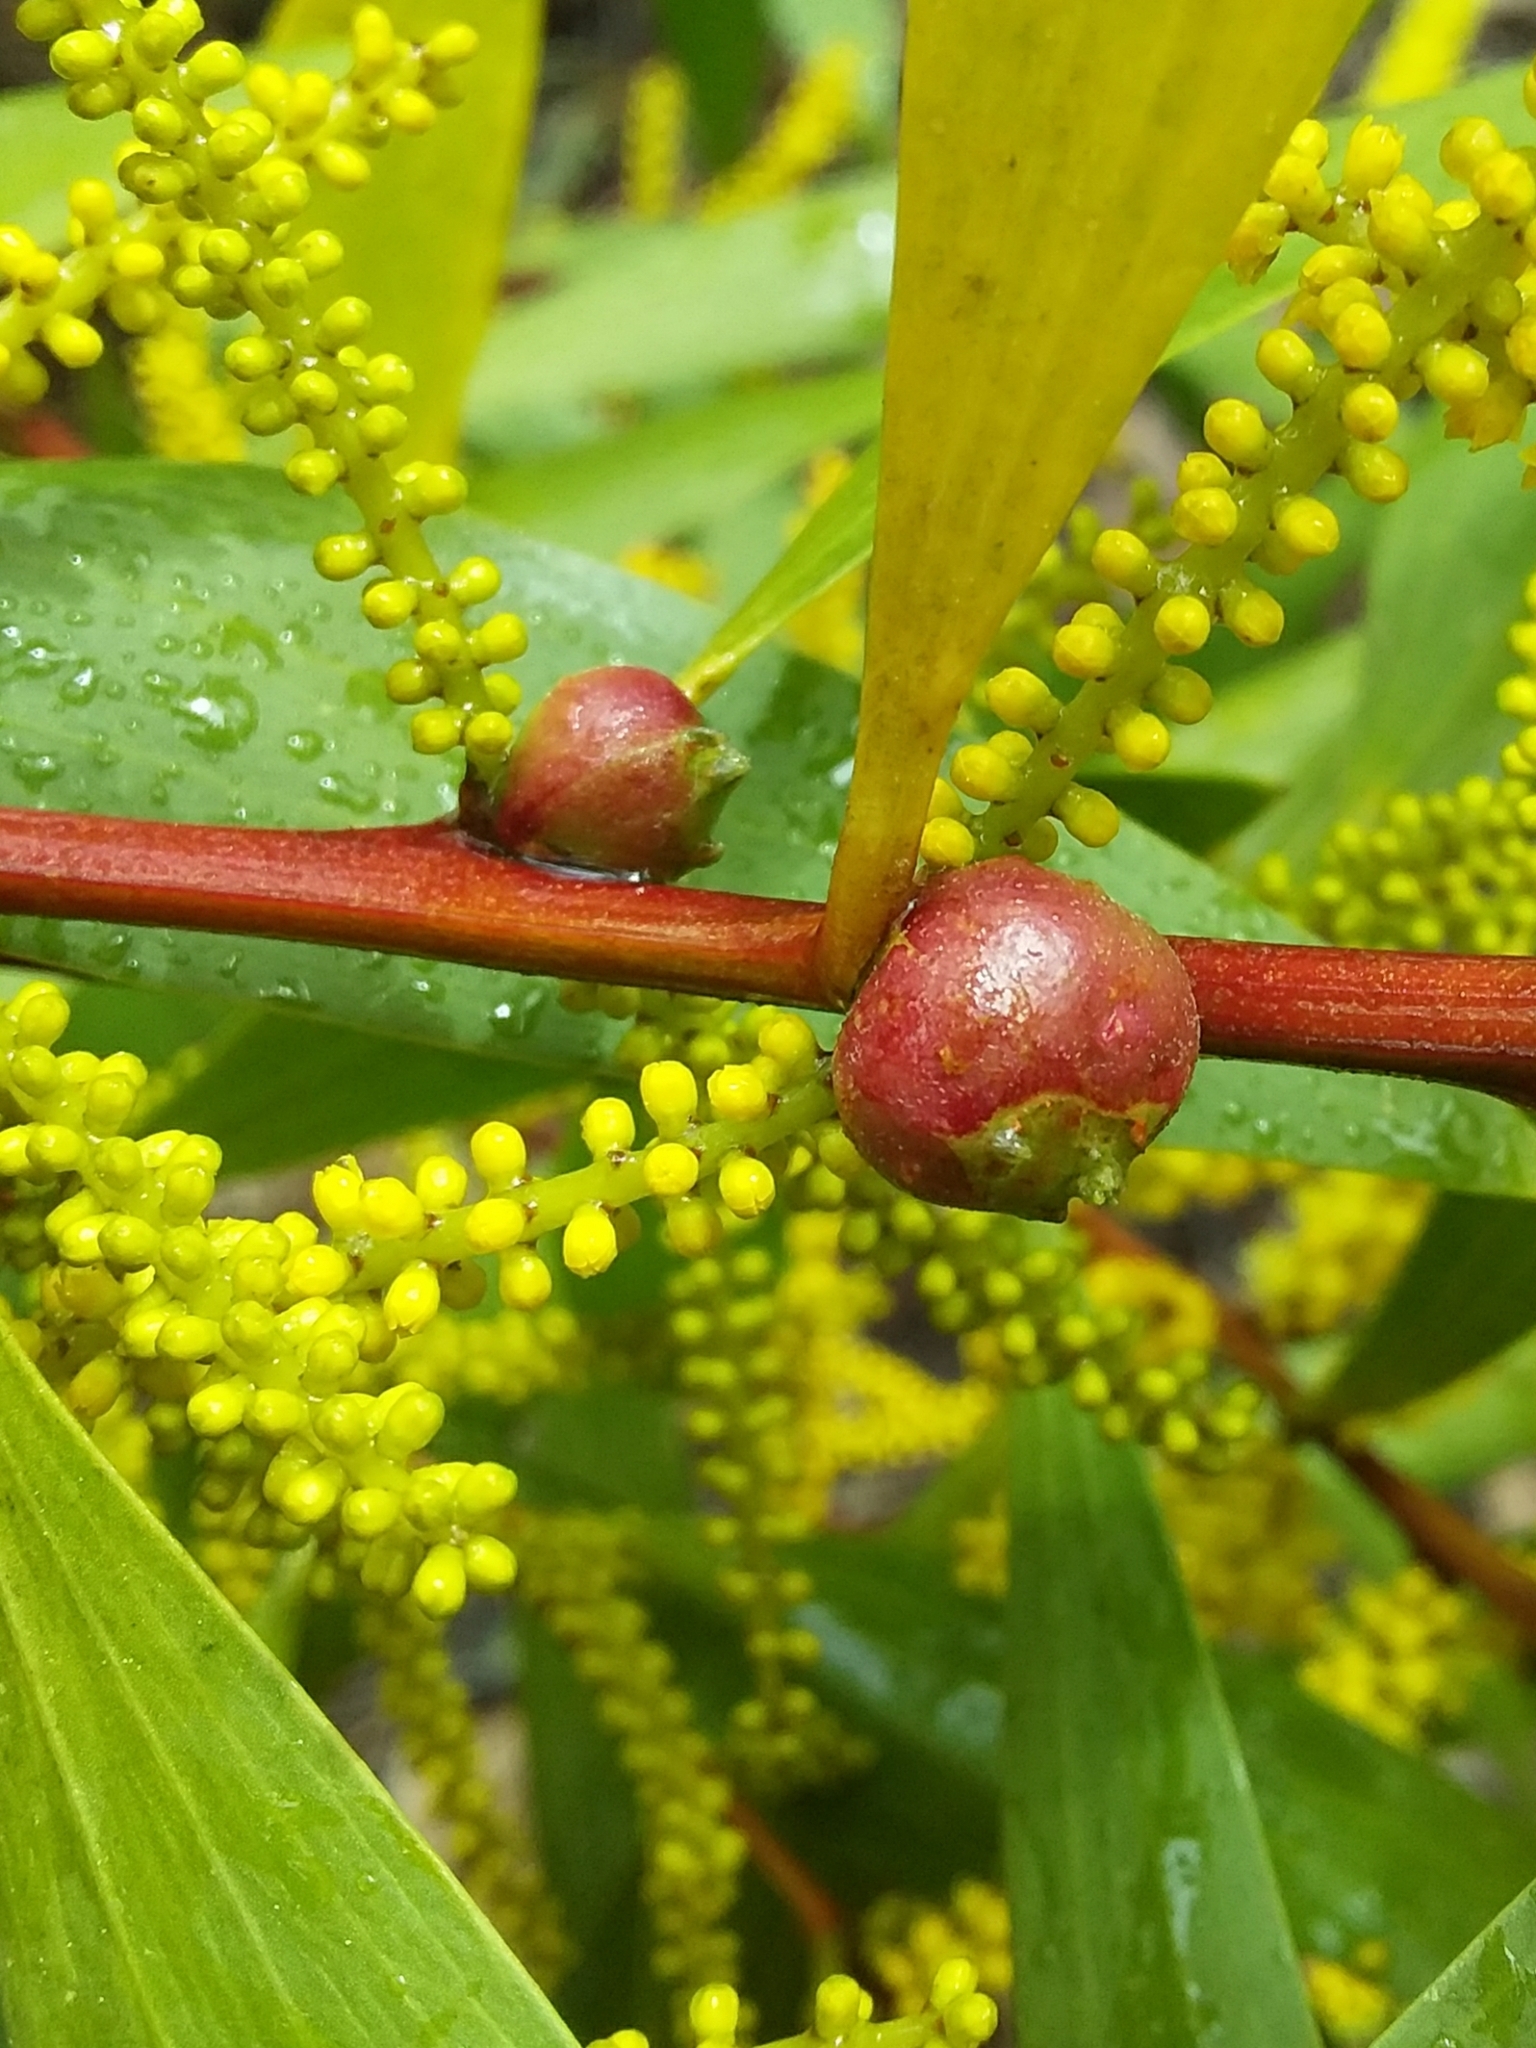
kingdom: Animalia
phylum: Arthropoda
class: Insecta
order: Hymenoptera
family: Pteromalidae
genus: Trichilogaster
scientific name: Trichilogaster acaciaelongifoliae
